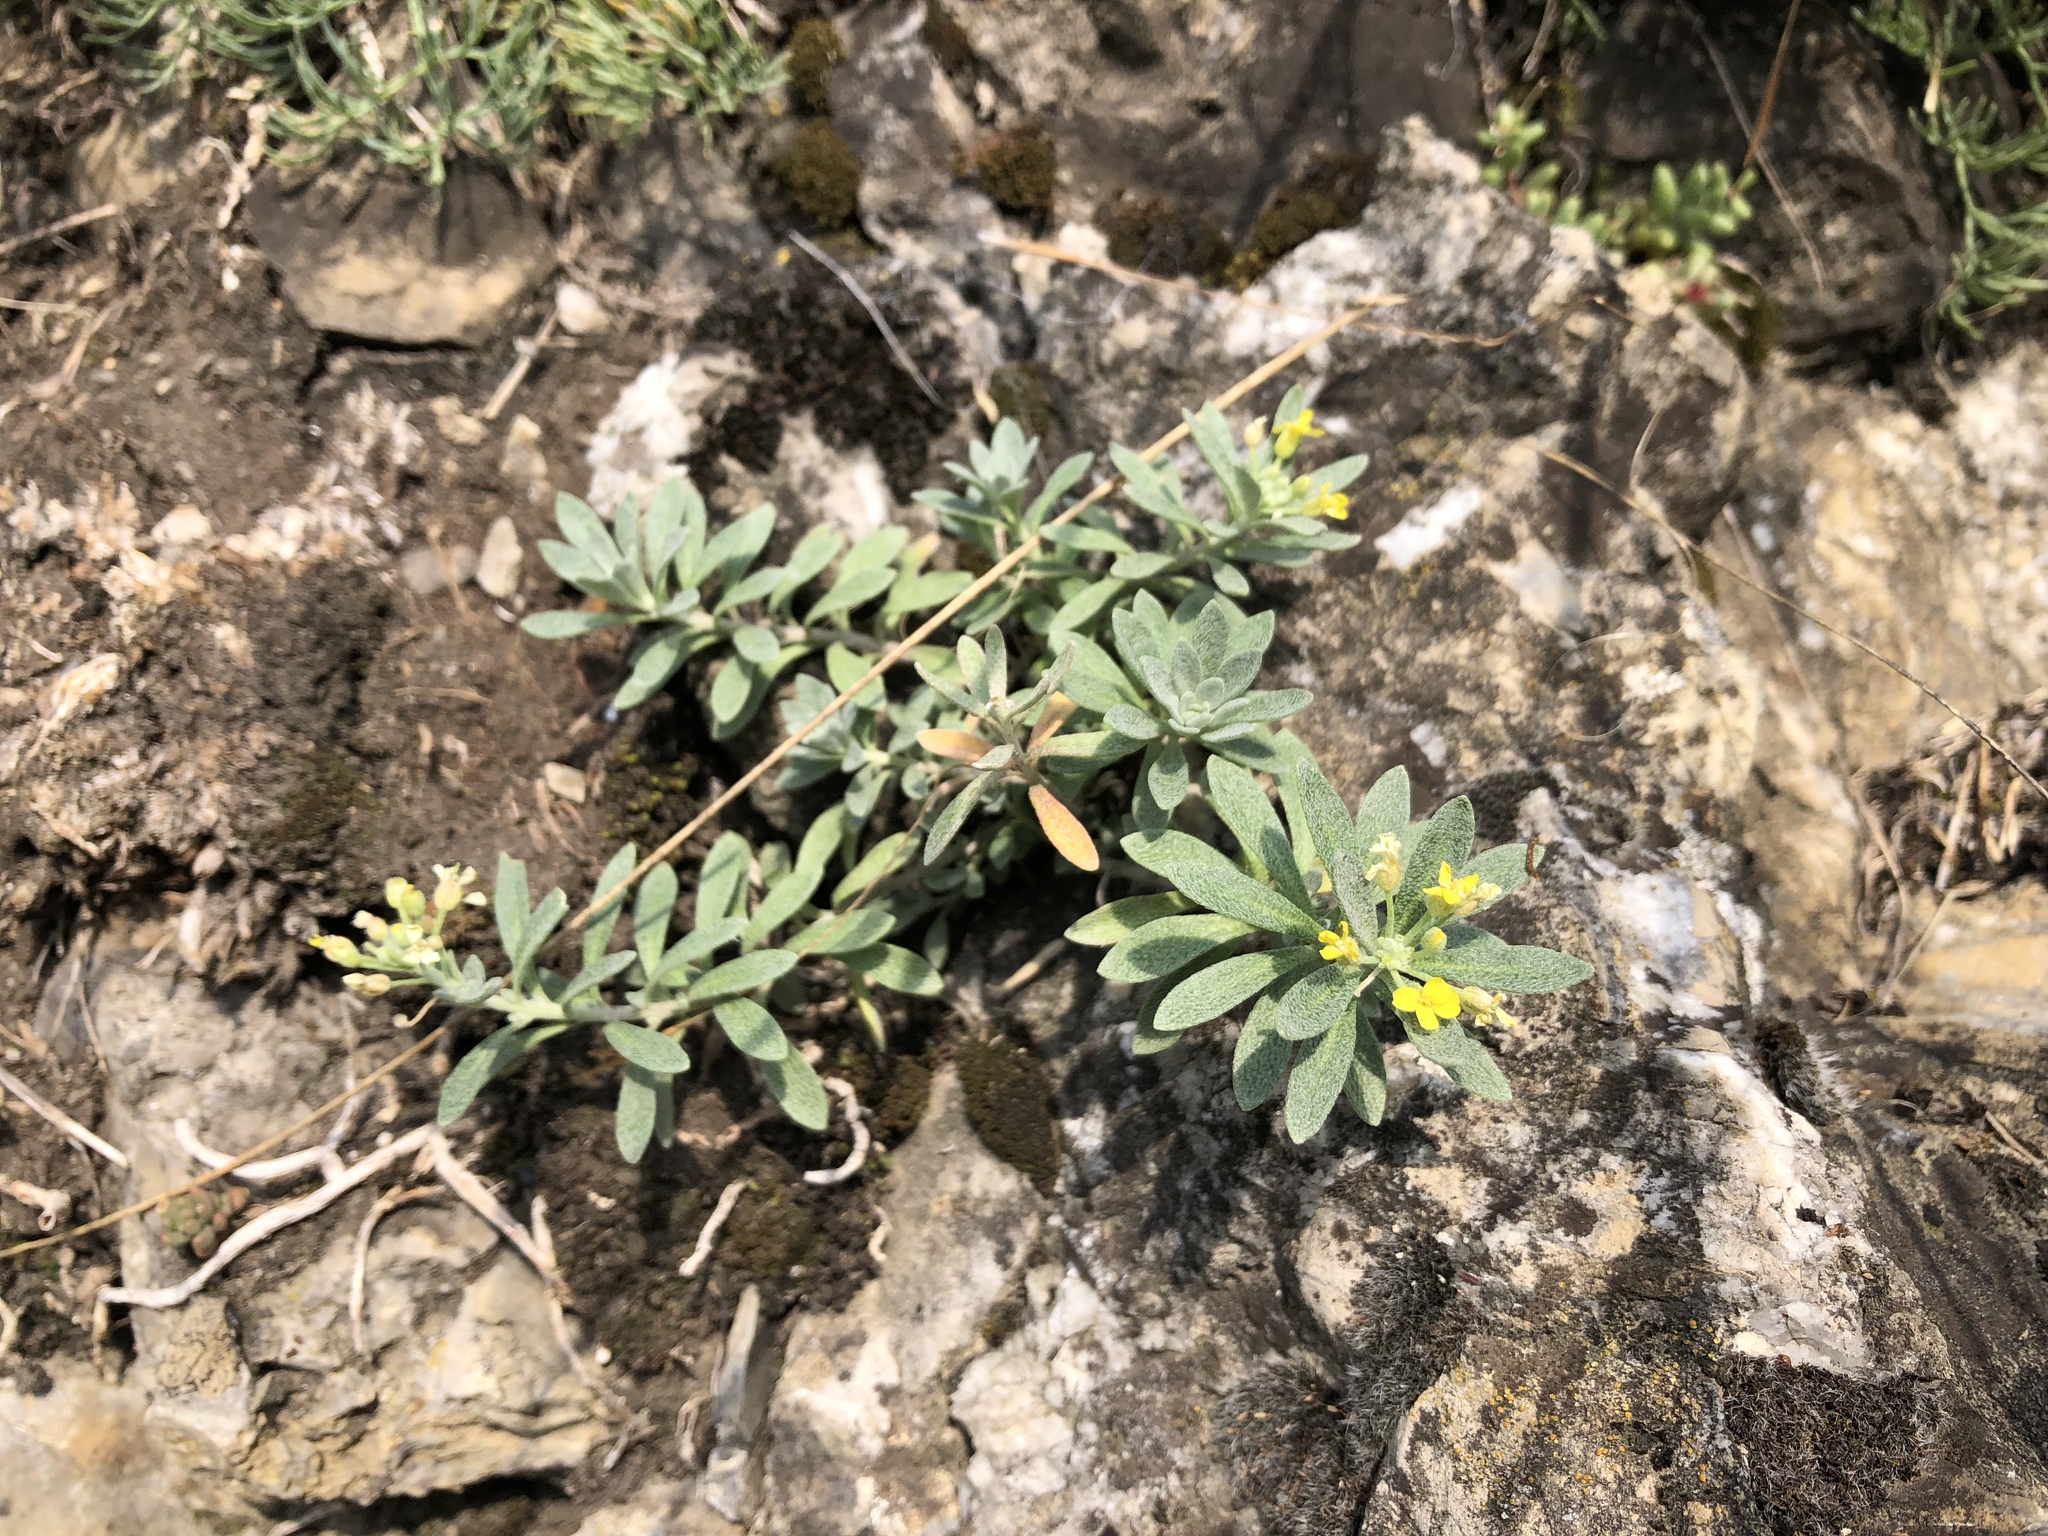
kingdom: Plantae
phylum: Tracheophyta
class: Magnoliopsida
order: Brassicales
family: Brassicaceae
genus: Alyssum
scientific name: Alyssum gmelinii
